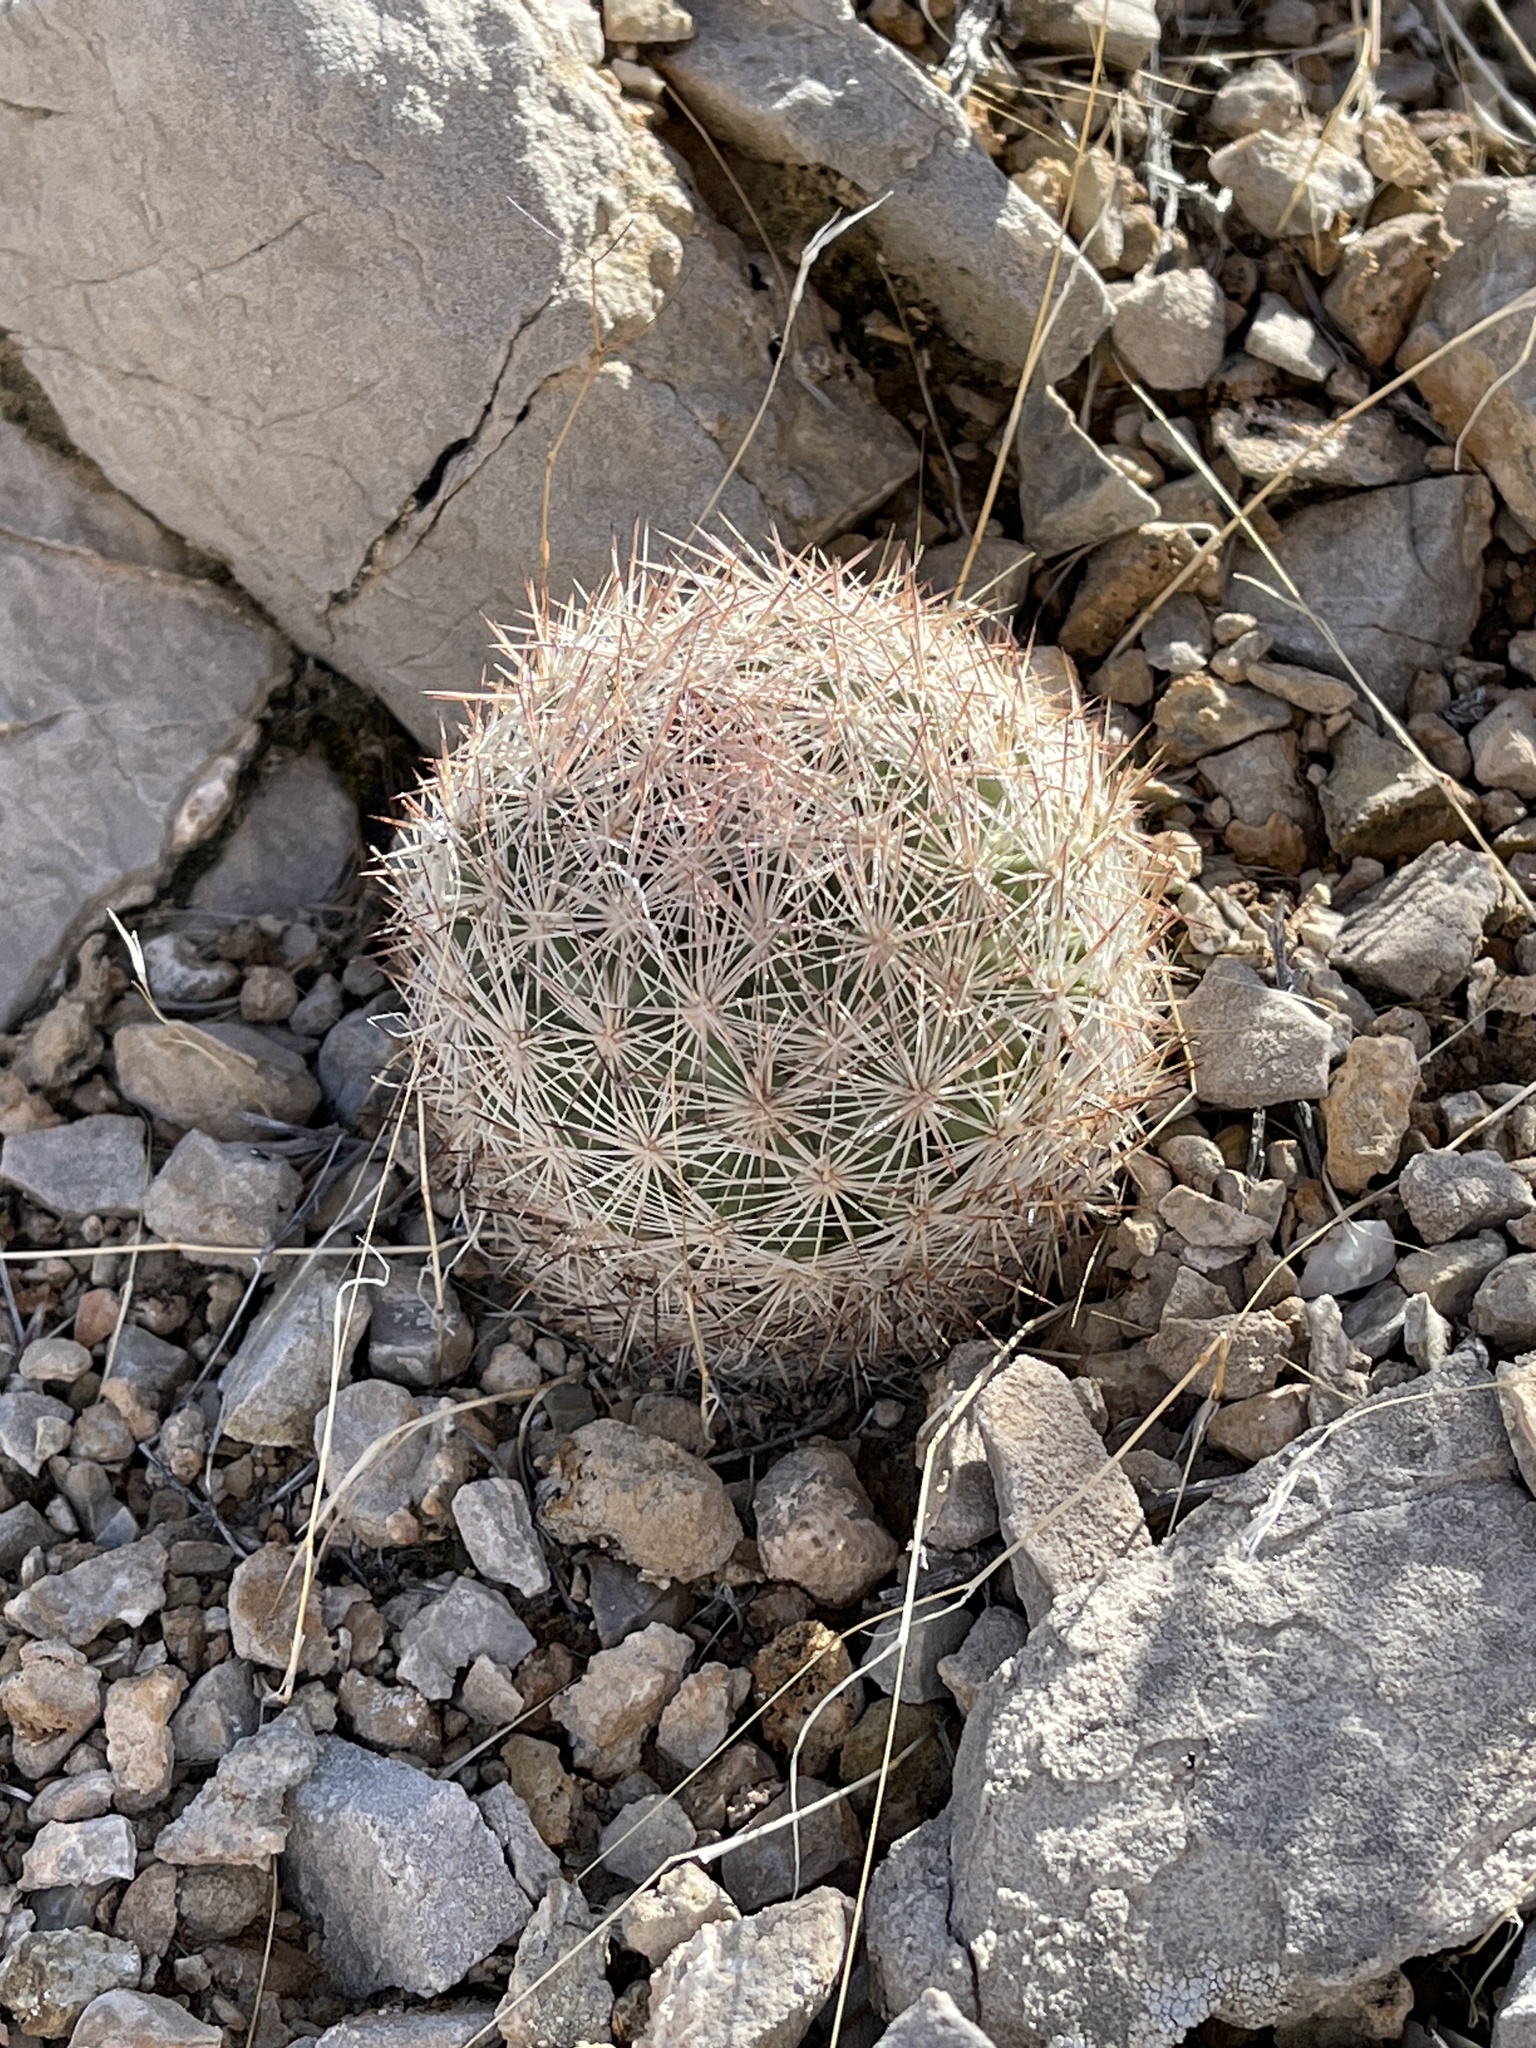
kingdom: Plantae
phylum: Tracheophyta
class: Magnoliopsida
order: Caryophyllales
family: Cactaceae
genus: Pelecyphora
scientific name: Pelecyphora dasyacantha
